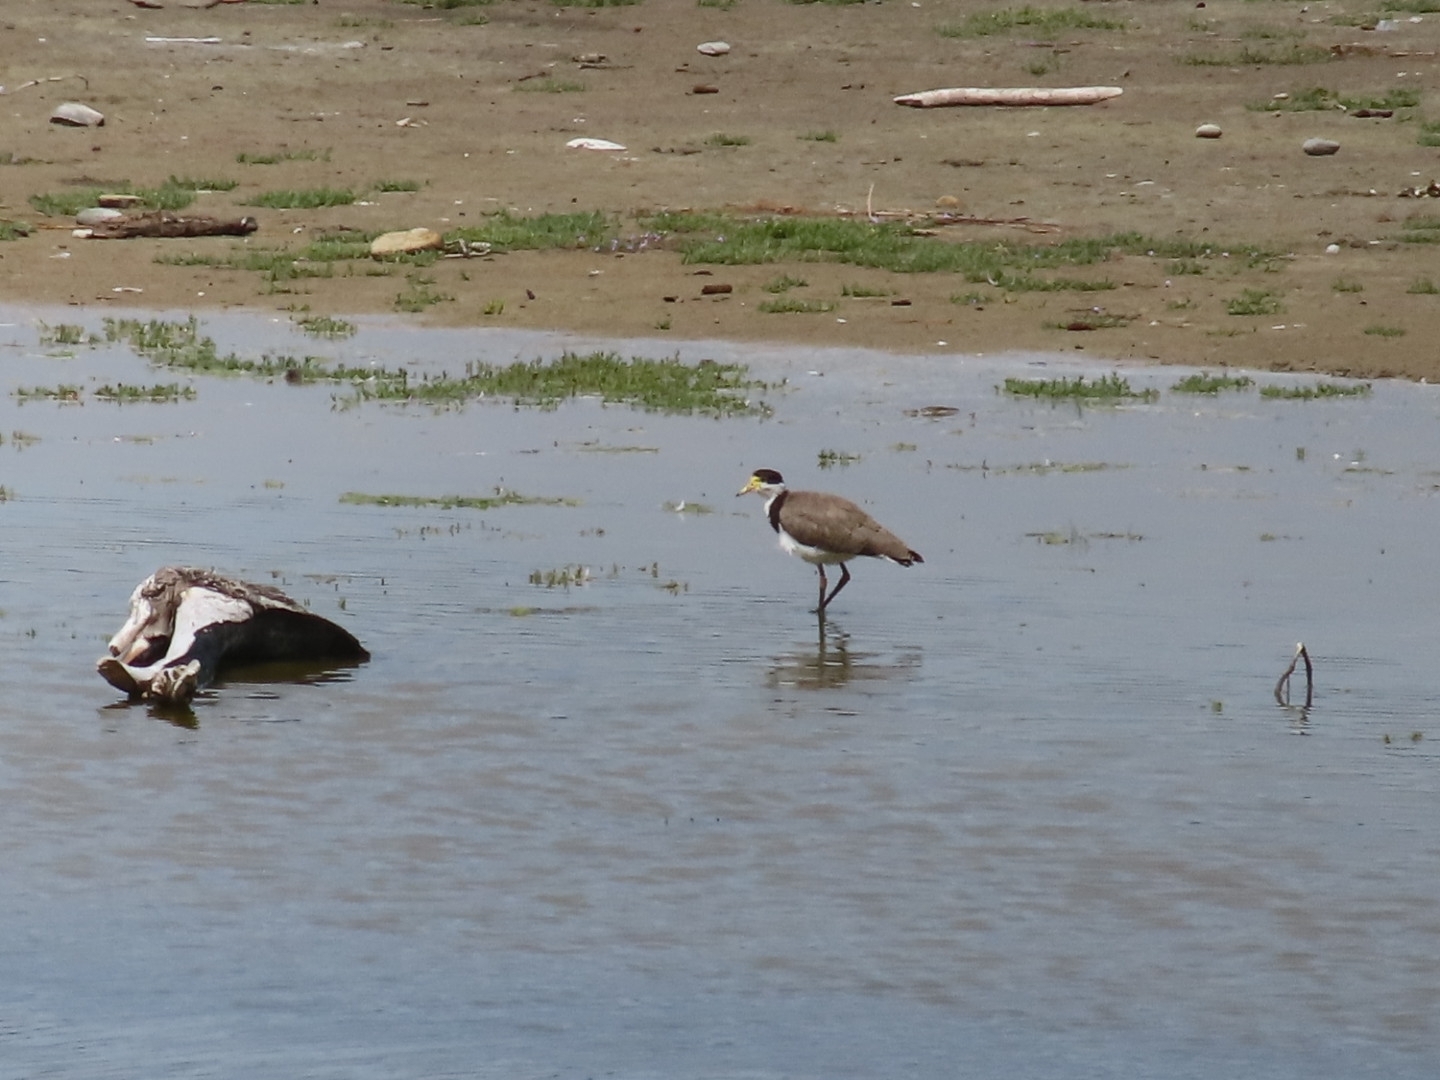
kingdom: Animalia
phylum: Chordata
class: Aves
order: Charadriiformes
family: Charadriidae
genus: Vanellus
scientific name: Vanellus miles
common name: Masked lapwing
